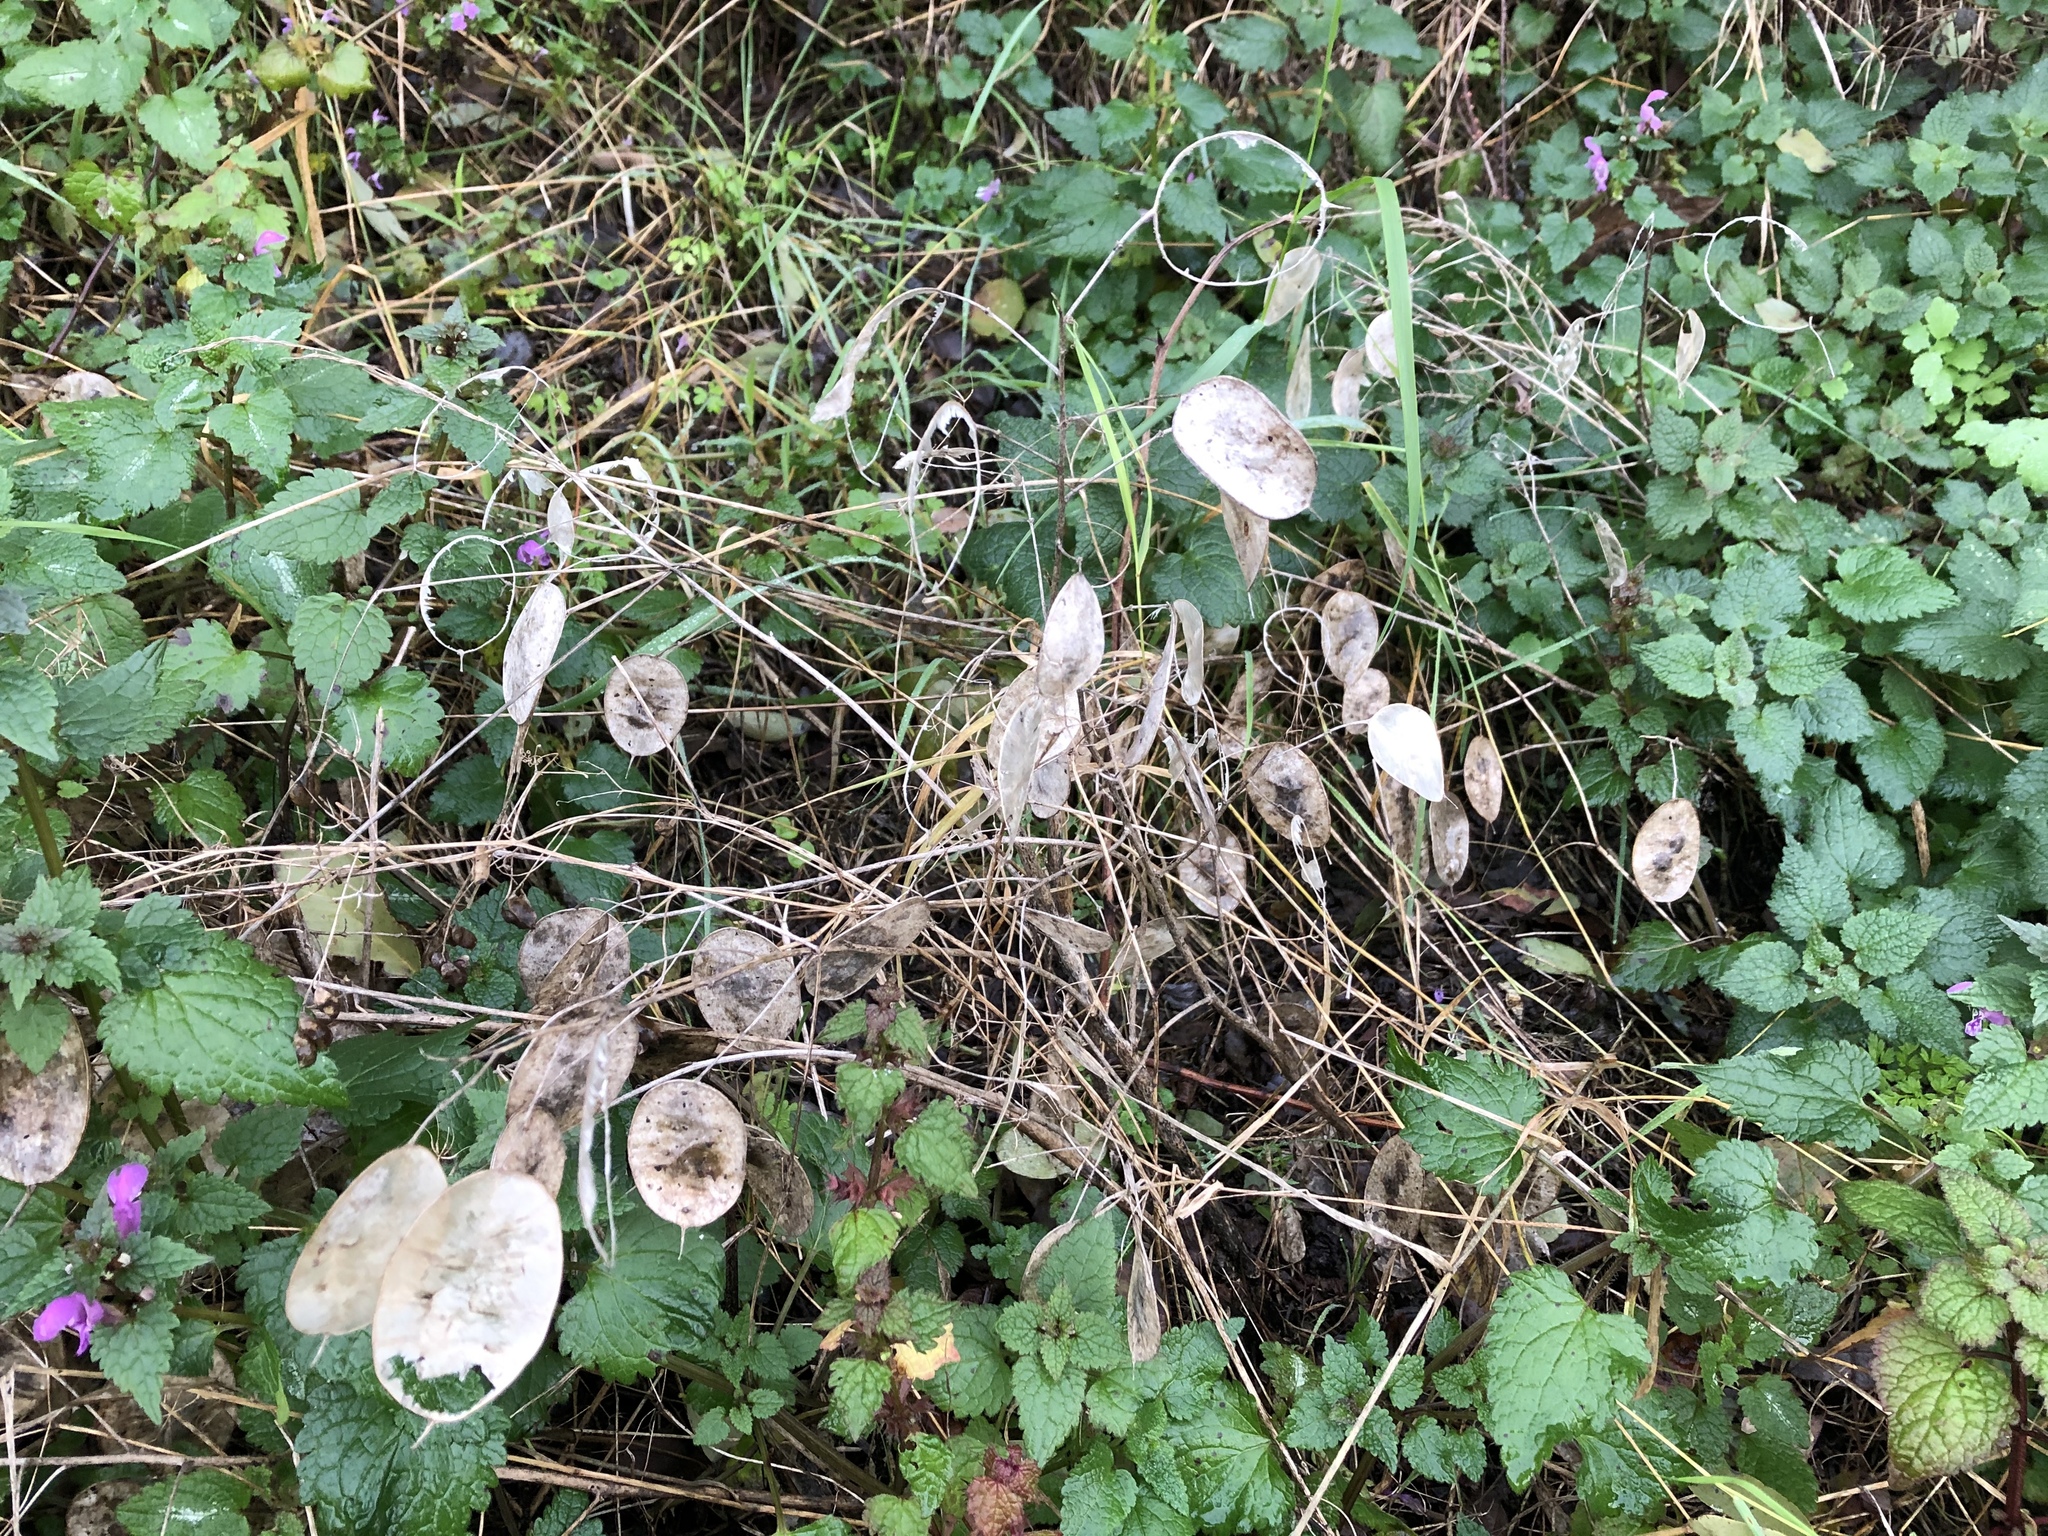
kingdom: Plantae
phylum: Tracheophyta
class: Magnoliopsida
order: Brassicales
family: Brassicaceae
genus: Lunaria
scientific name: Lunaria annua
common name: Honesty
